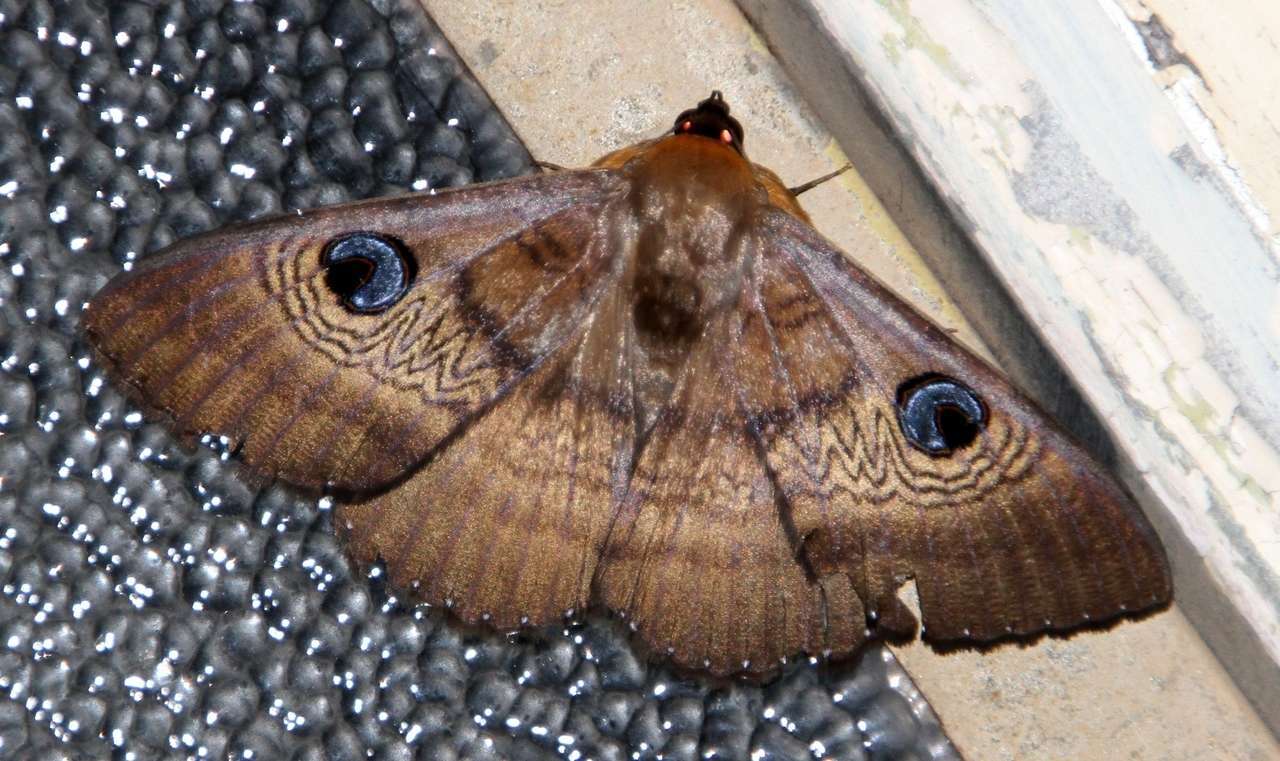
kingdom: Animalia
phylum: Arthropoda
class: Insecta
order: Lepidoptera
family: Erebidae
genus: Dasypodia
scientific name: Dasypodia selenophora
